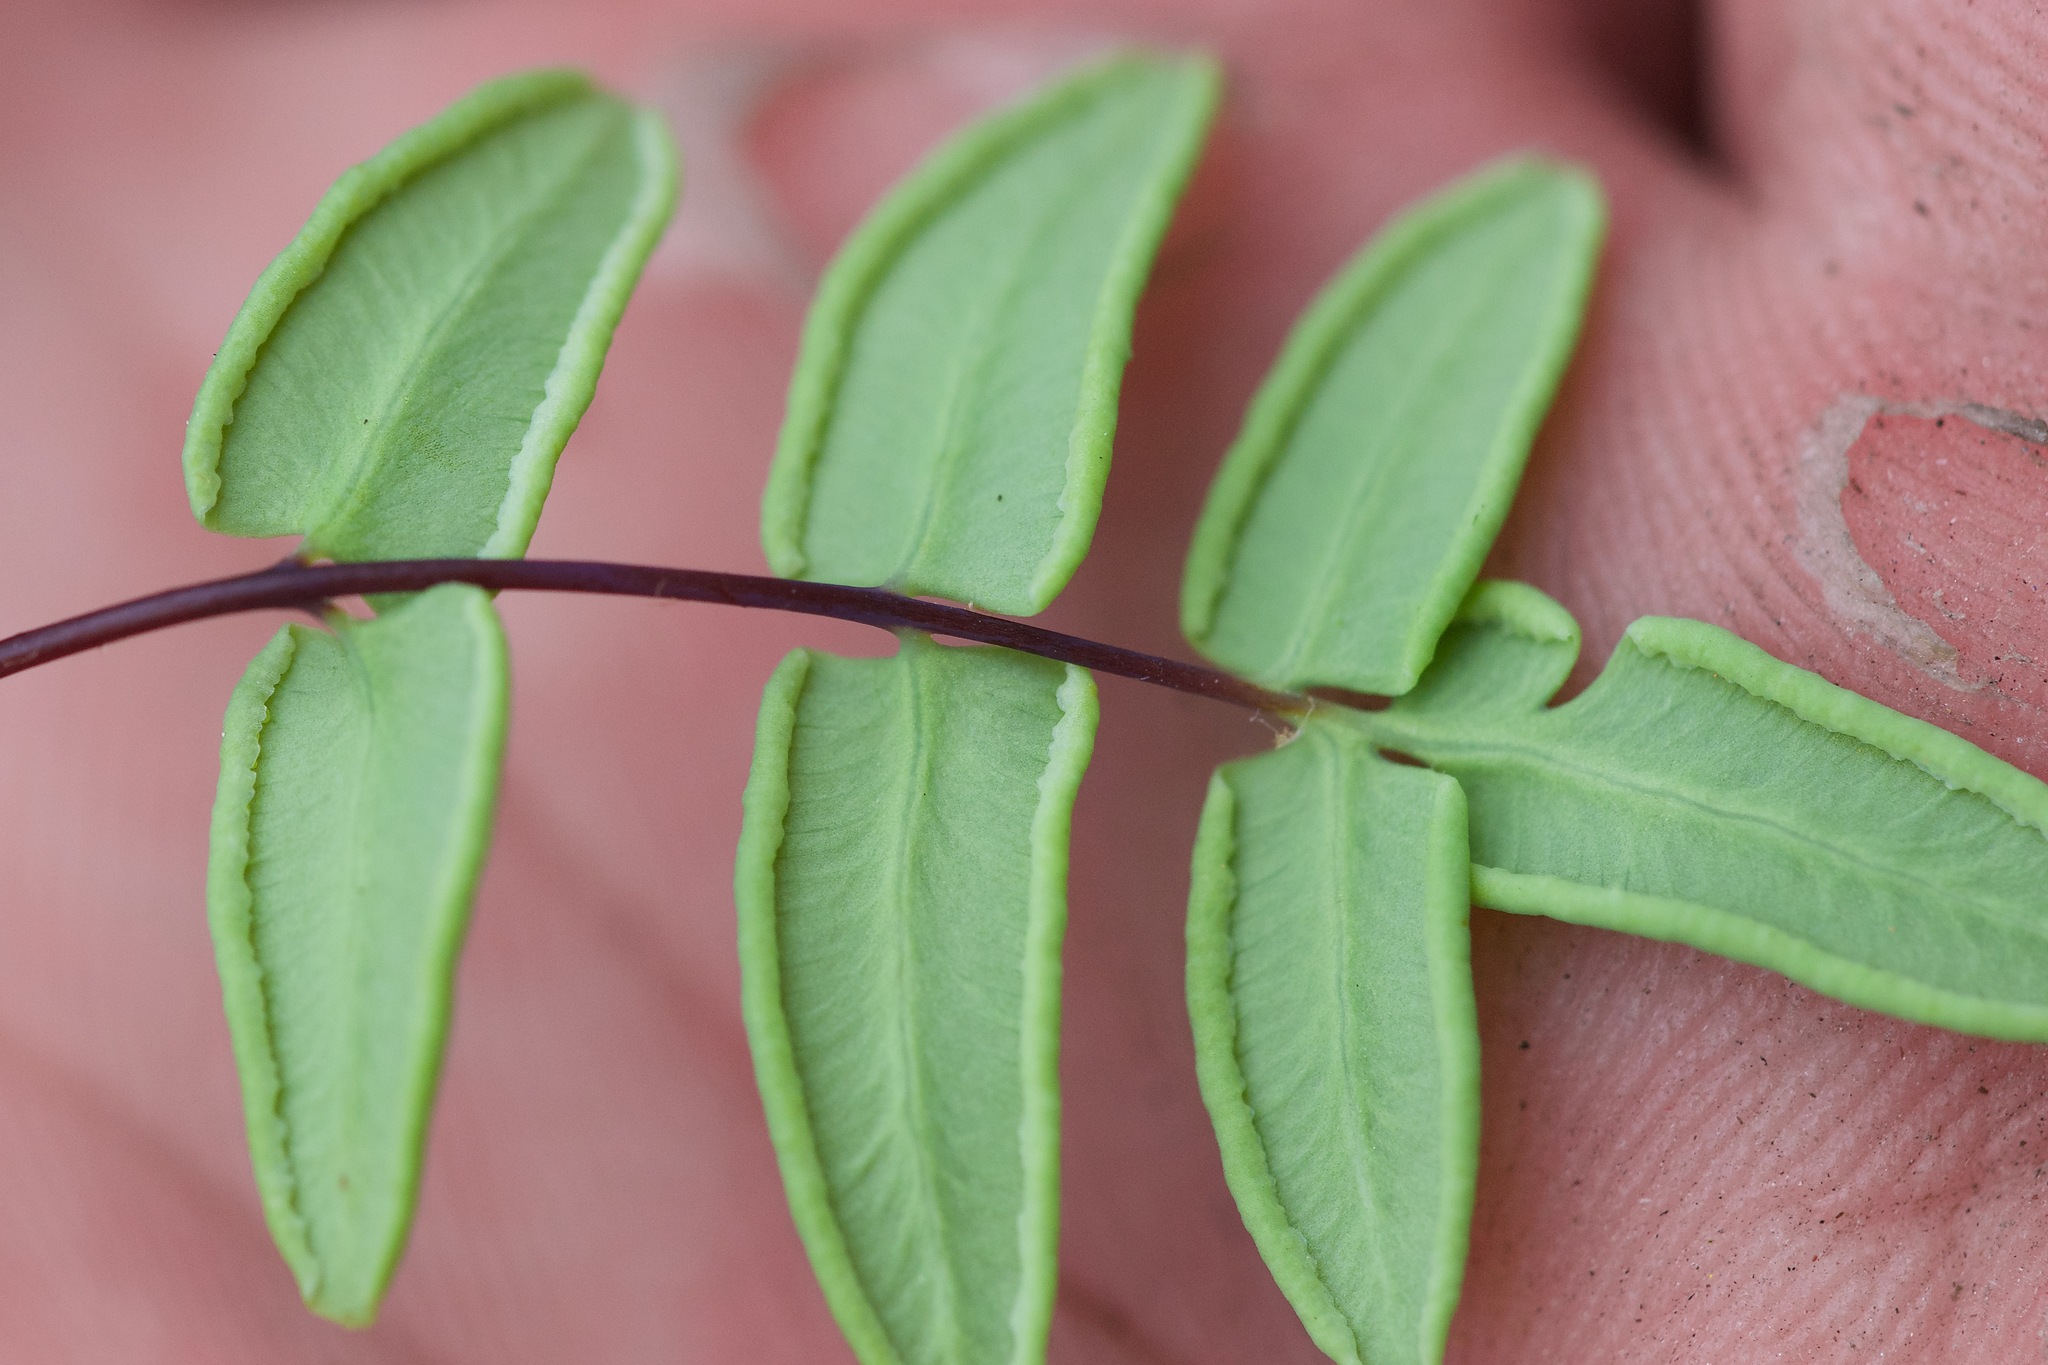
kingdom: Plantae
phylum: Tracheophyta
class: Polypodiopsida
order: Polypodiales
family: Pteridaceae
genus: Pellaea
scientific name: Pellaea glabella
